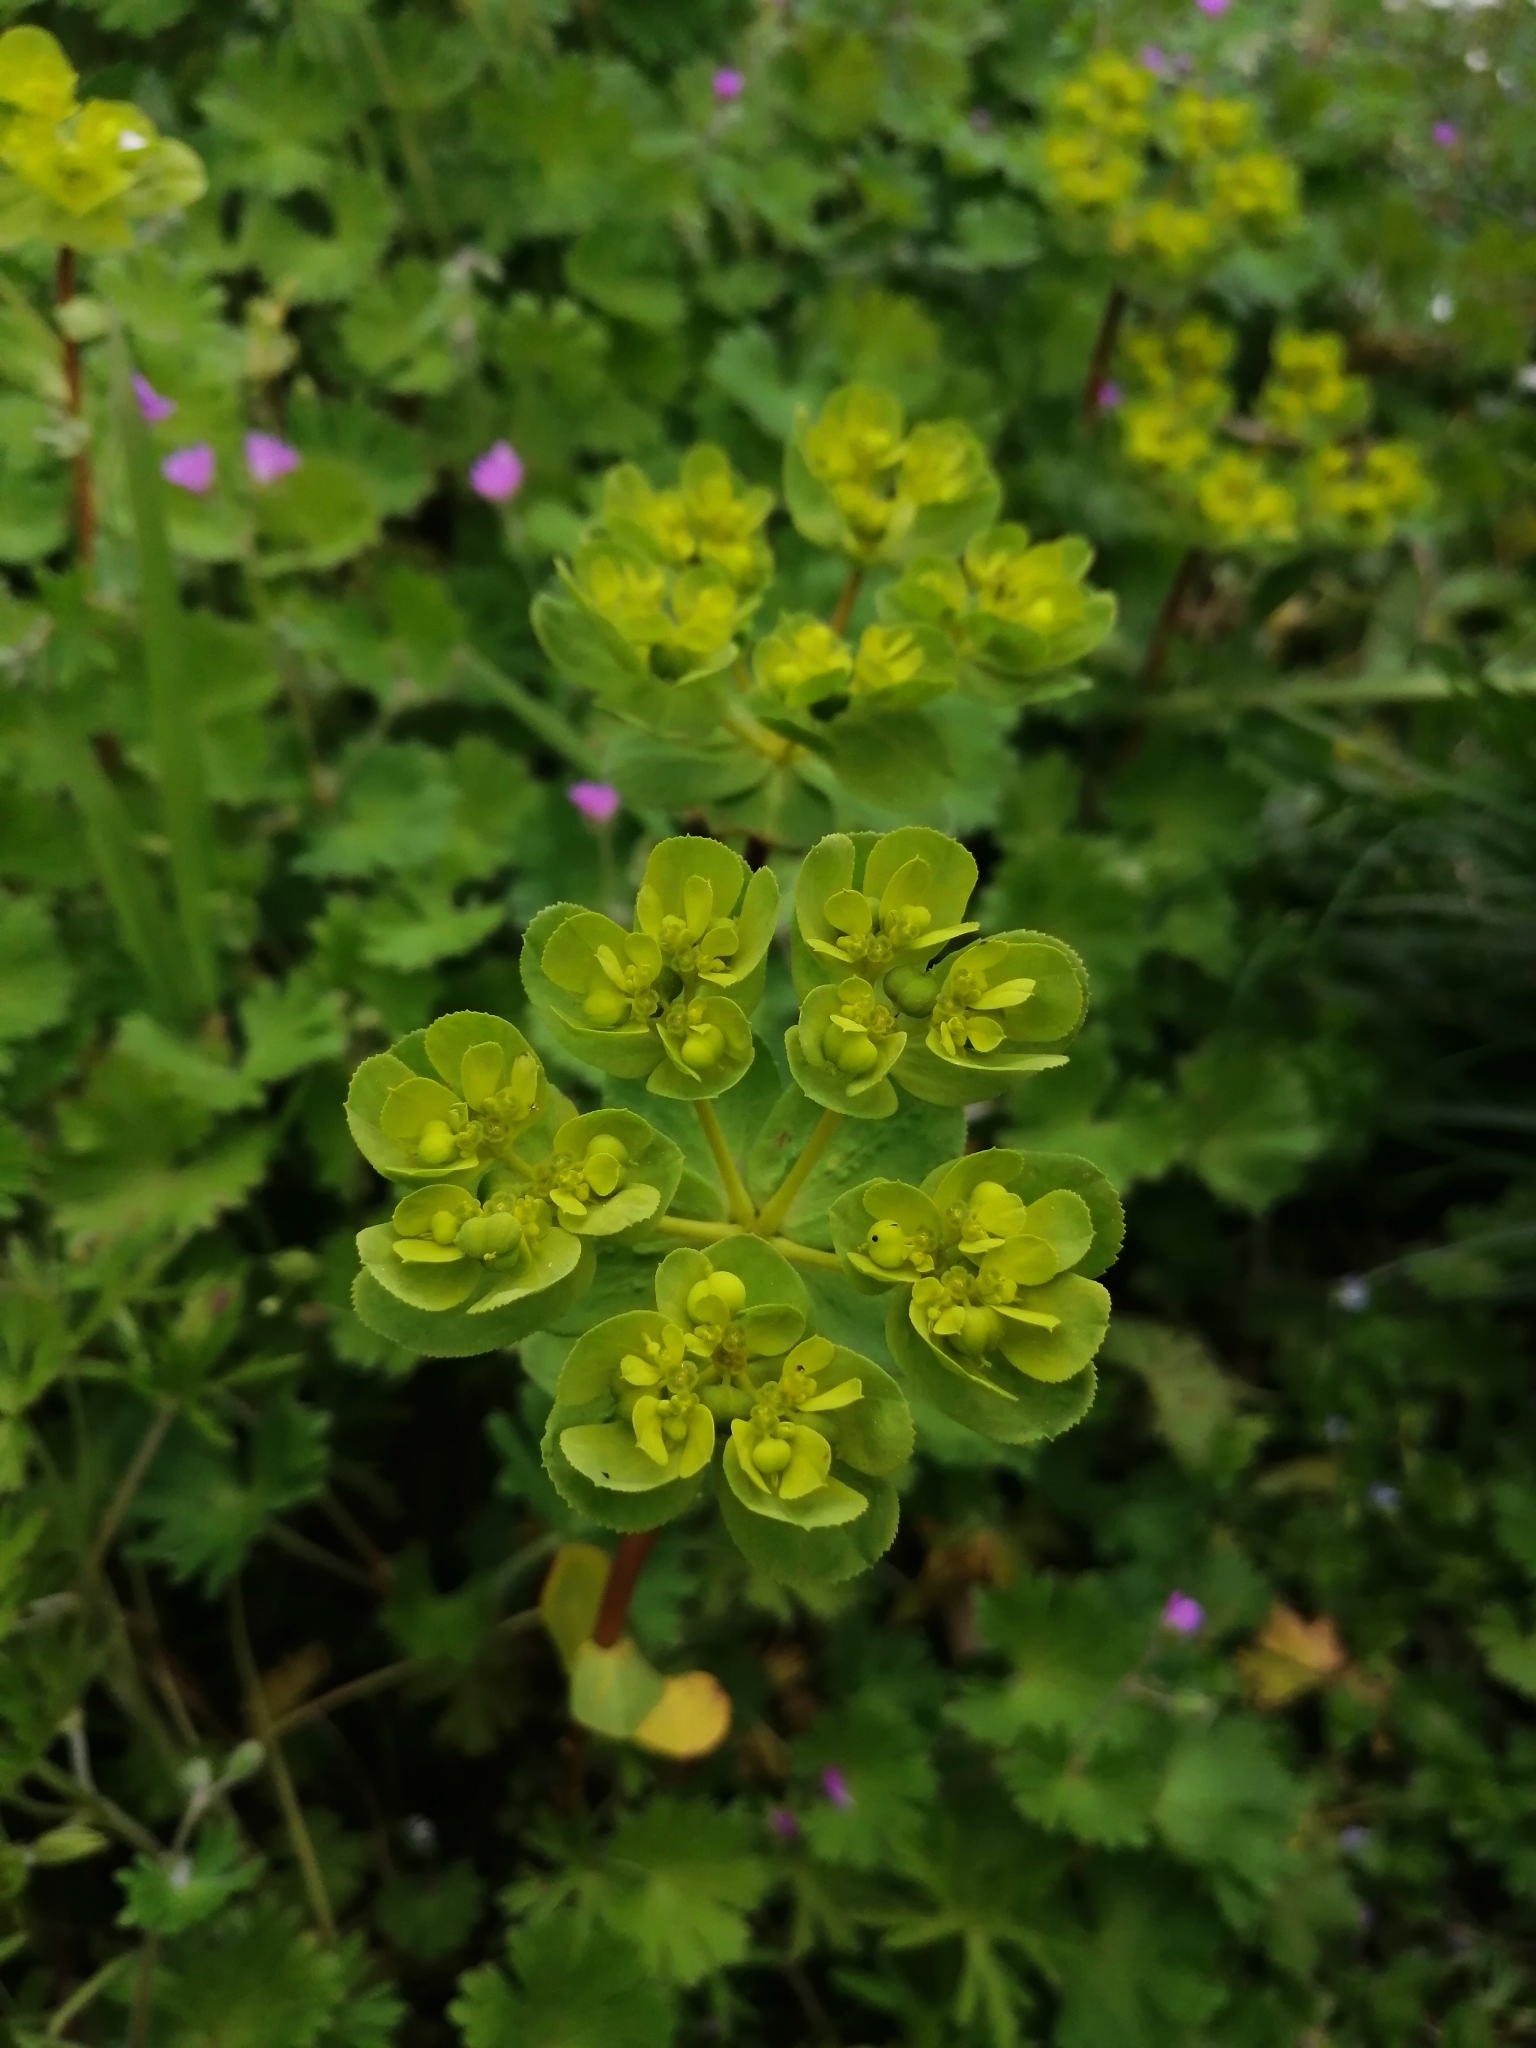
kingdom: Plantae
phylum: Tracheophyta
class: Magnoliopsida
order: Malpighiales
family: Euphorbiaceae
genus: Euphorbia
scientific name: Euphorbia helioscopia
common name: Sun spurge
